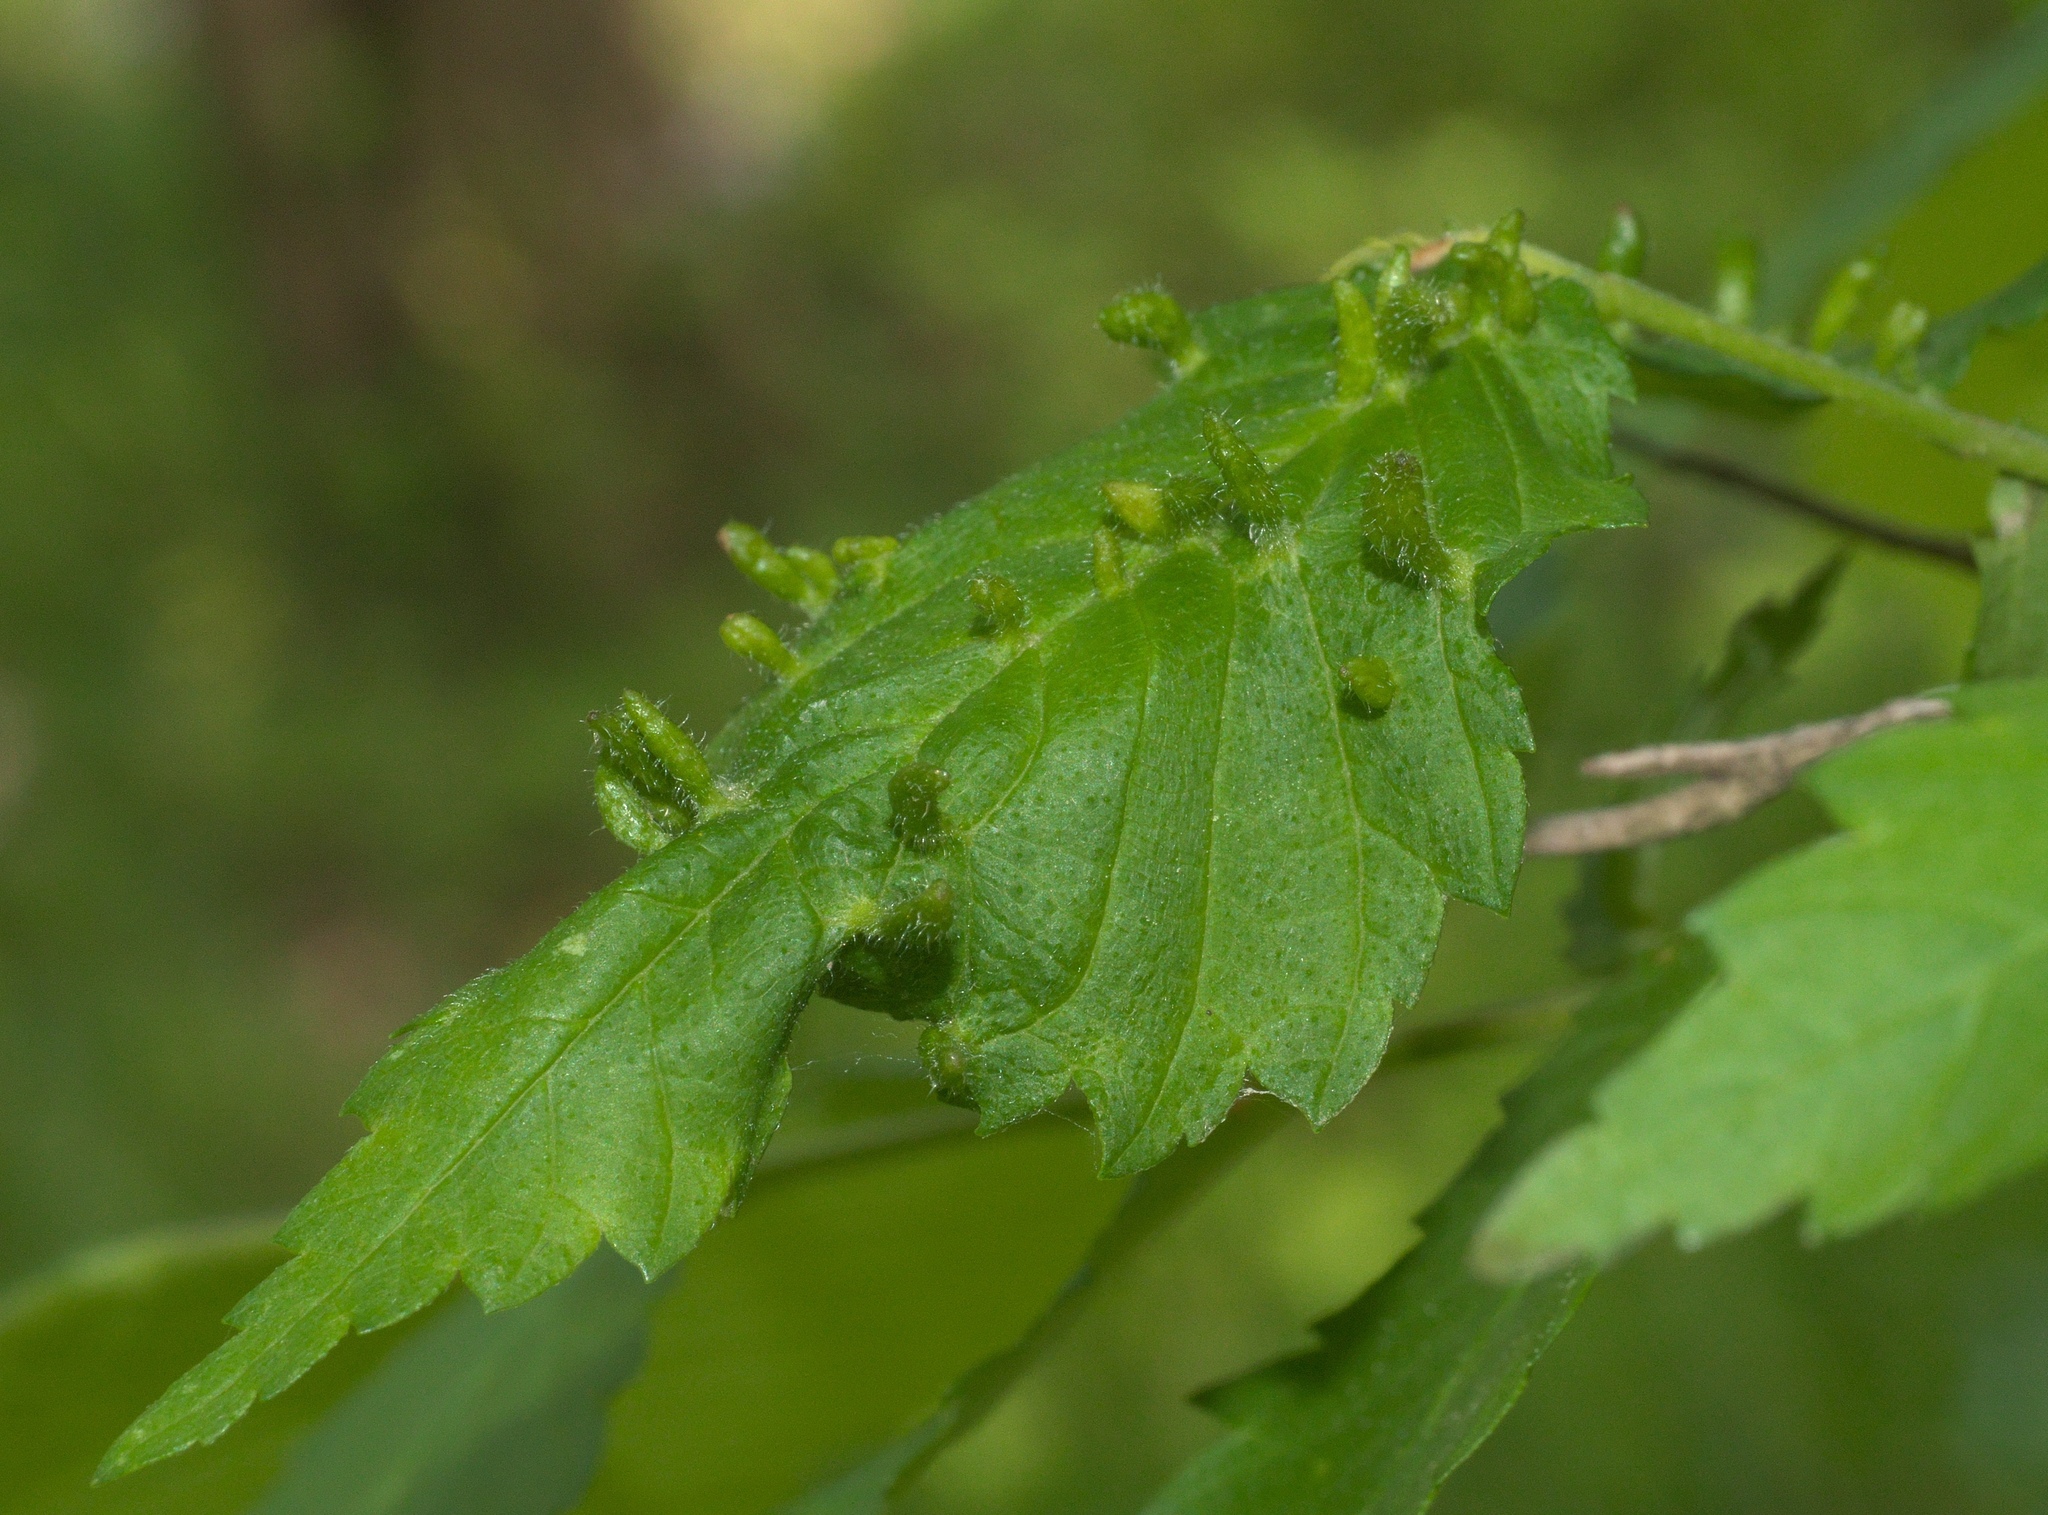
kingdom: Animalia
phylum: Arthropoda
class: Arachnida
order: Trombidiformes
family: Eriophyidae
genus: Aceria
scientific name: Aceria
